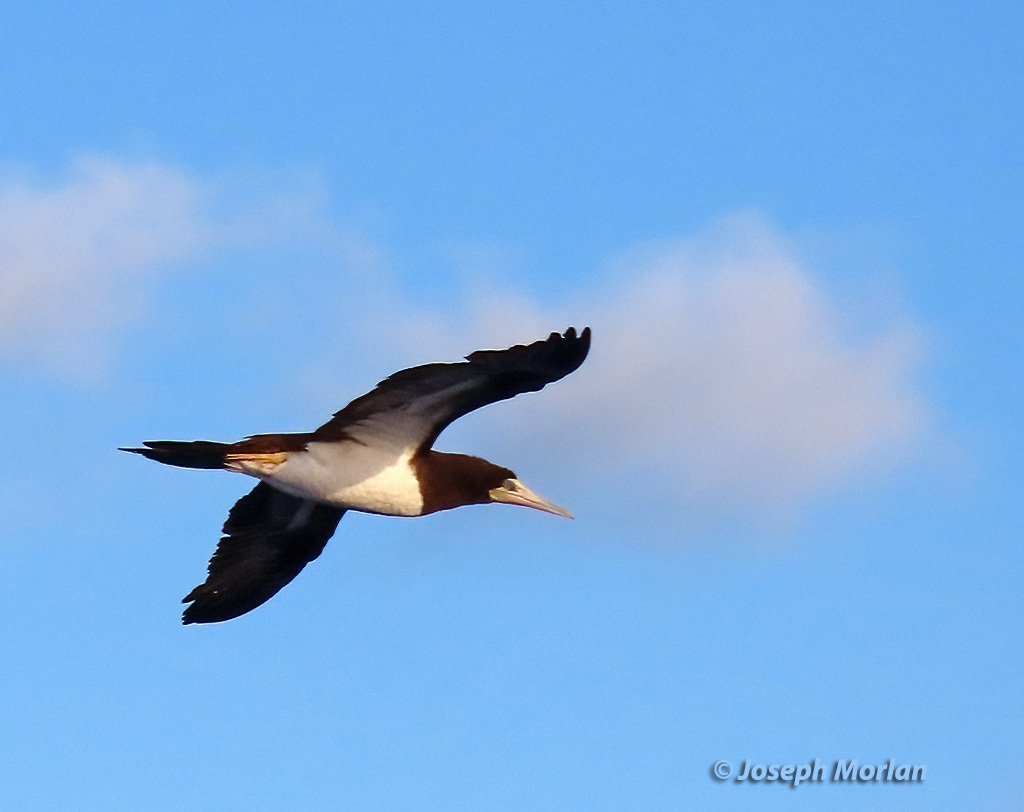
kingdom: Animalia
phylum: Chordata
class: Aves
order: Suliformes
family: Sulidae
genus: Sula
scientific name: Sula leucogaster
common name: Brown booby
